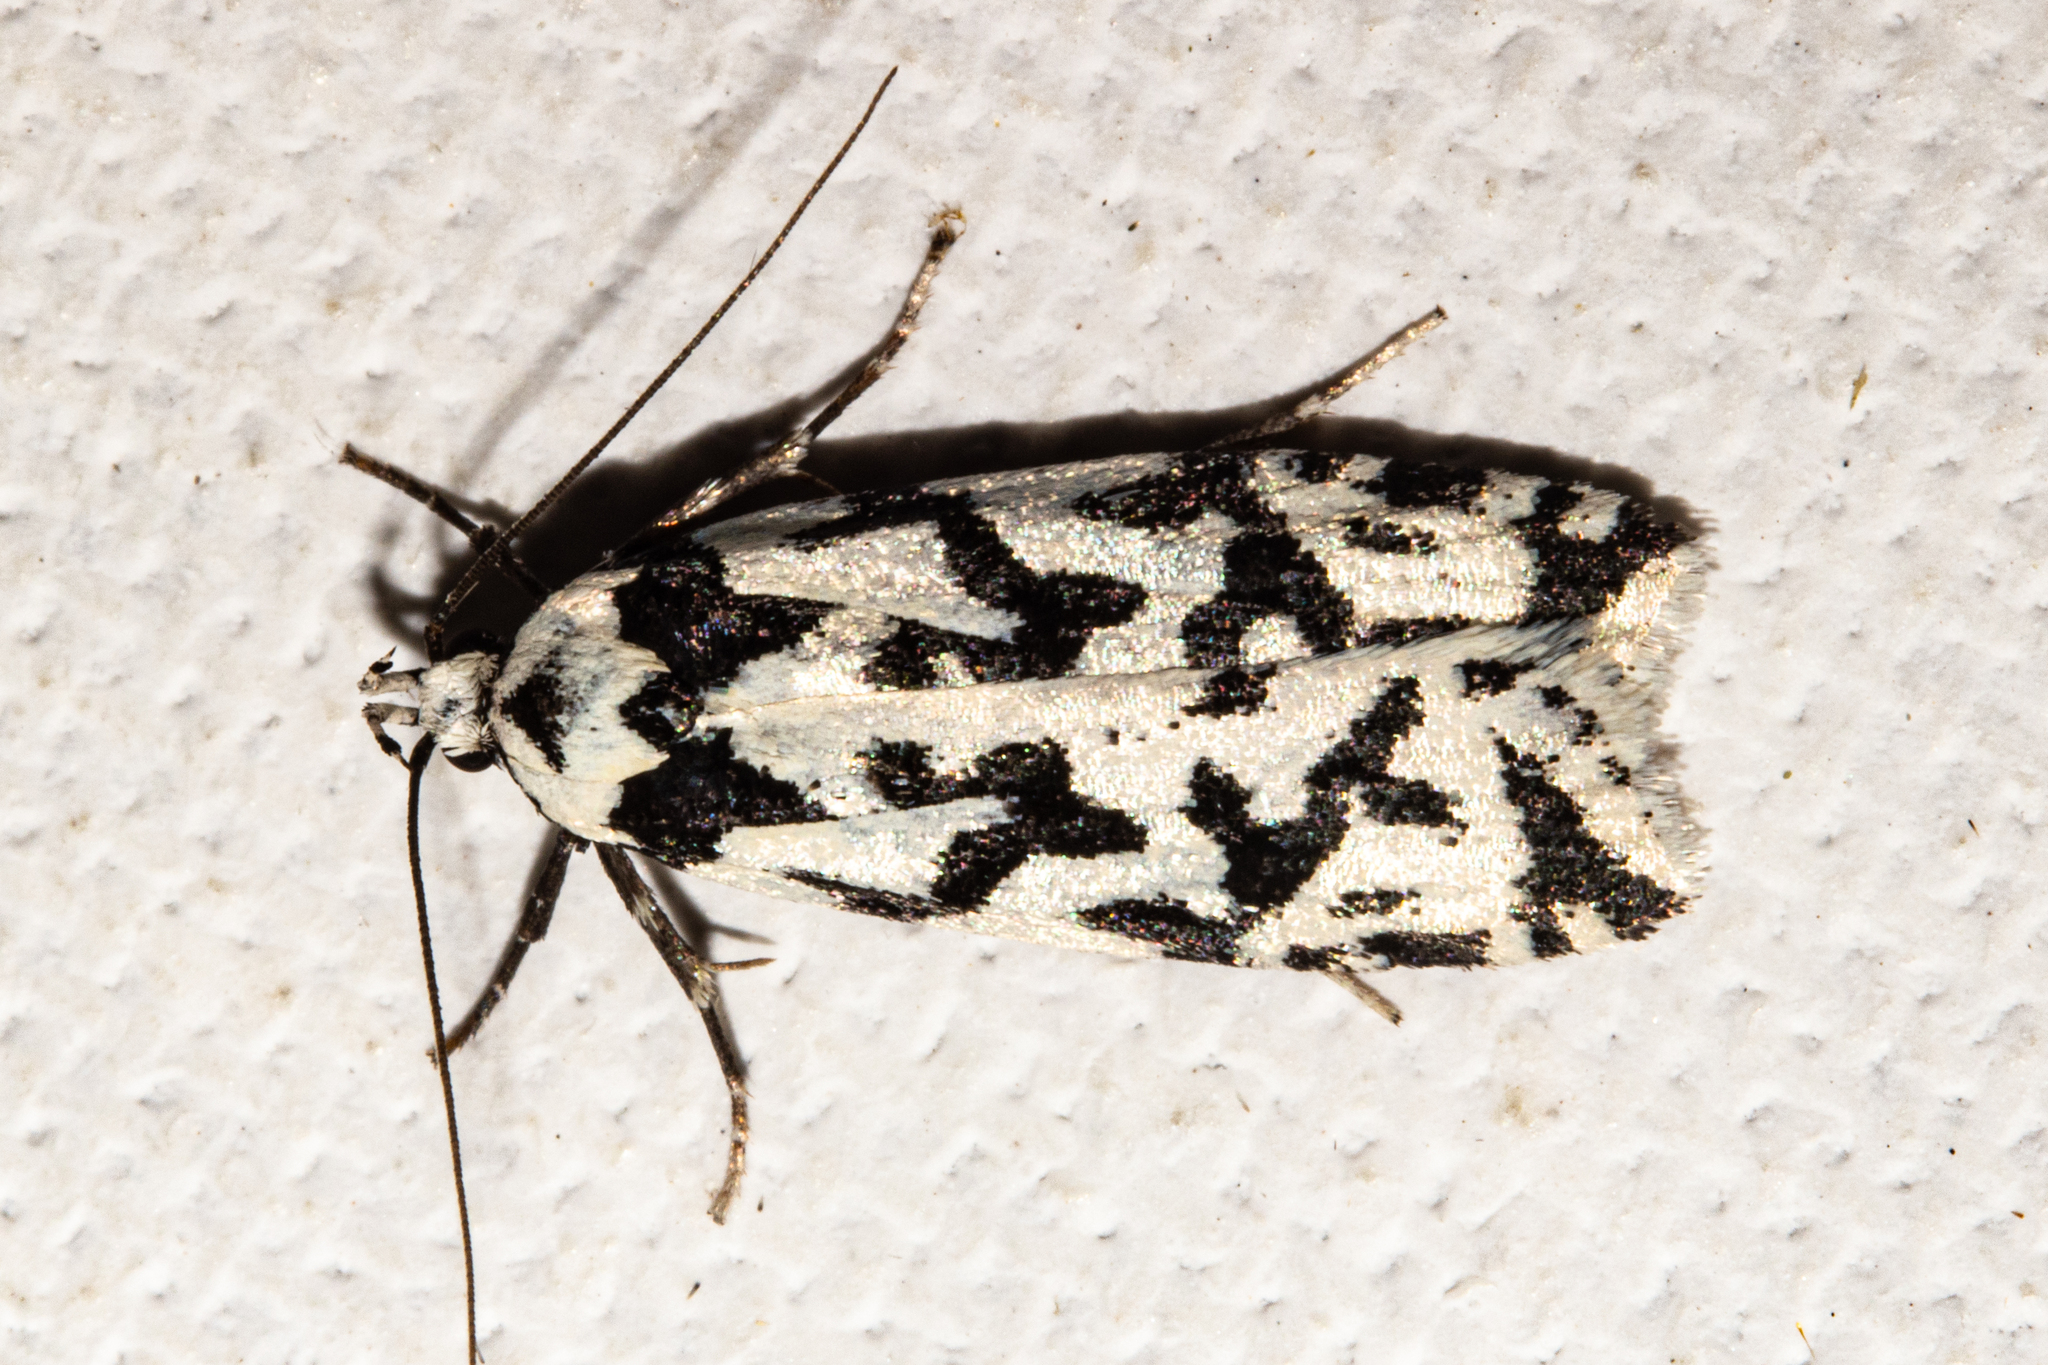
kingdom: Animalia
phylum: Arthropoda
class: Insecta
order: Lepidoptera
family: Oecophoridae
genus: Izatha
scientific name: Izatha acmonias
